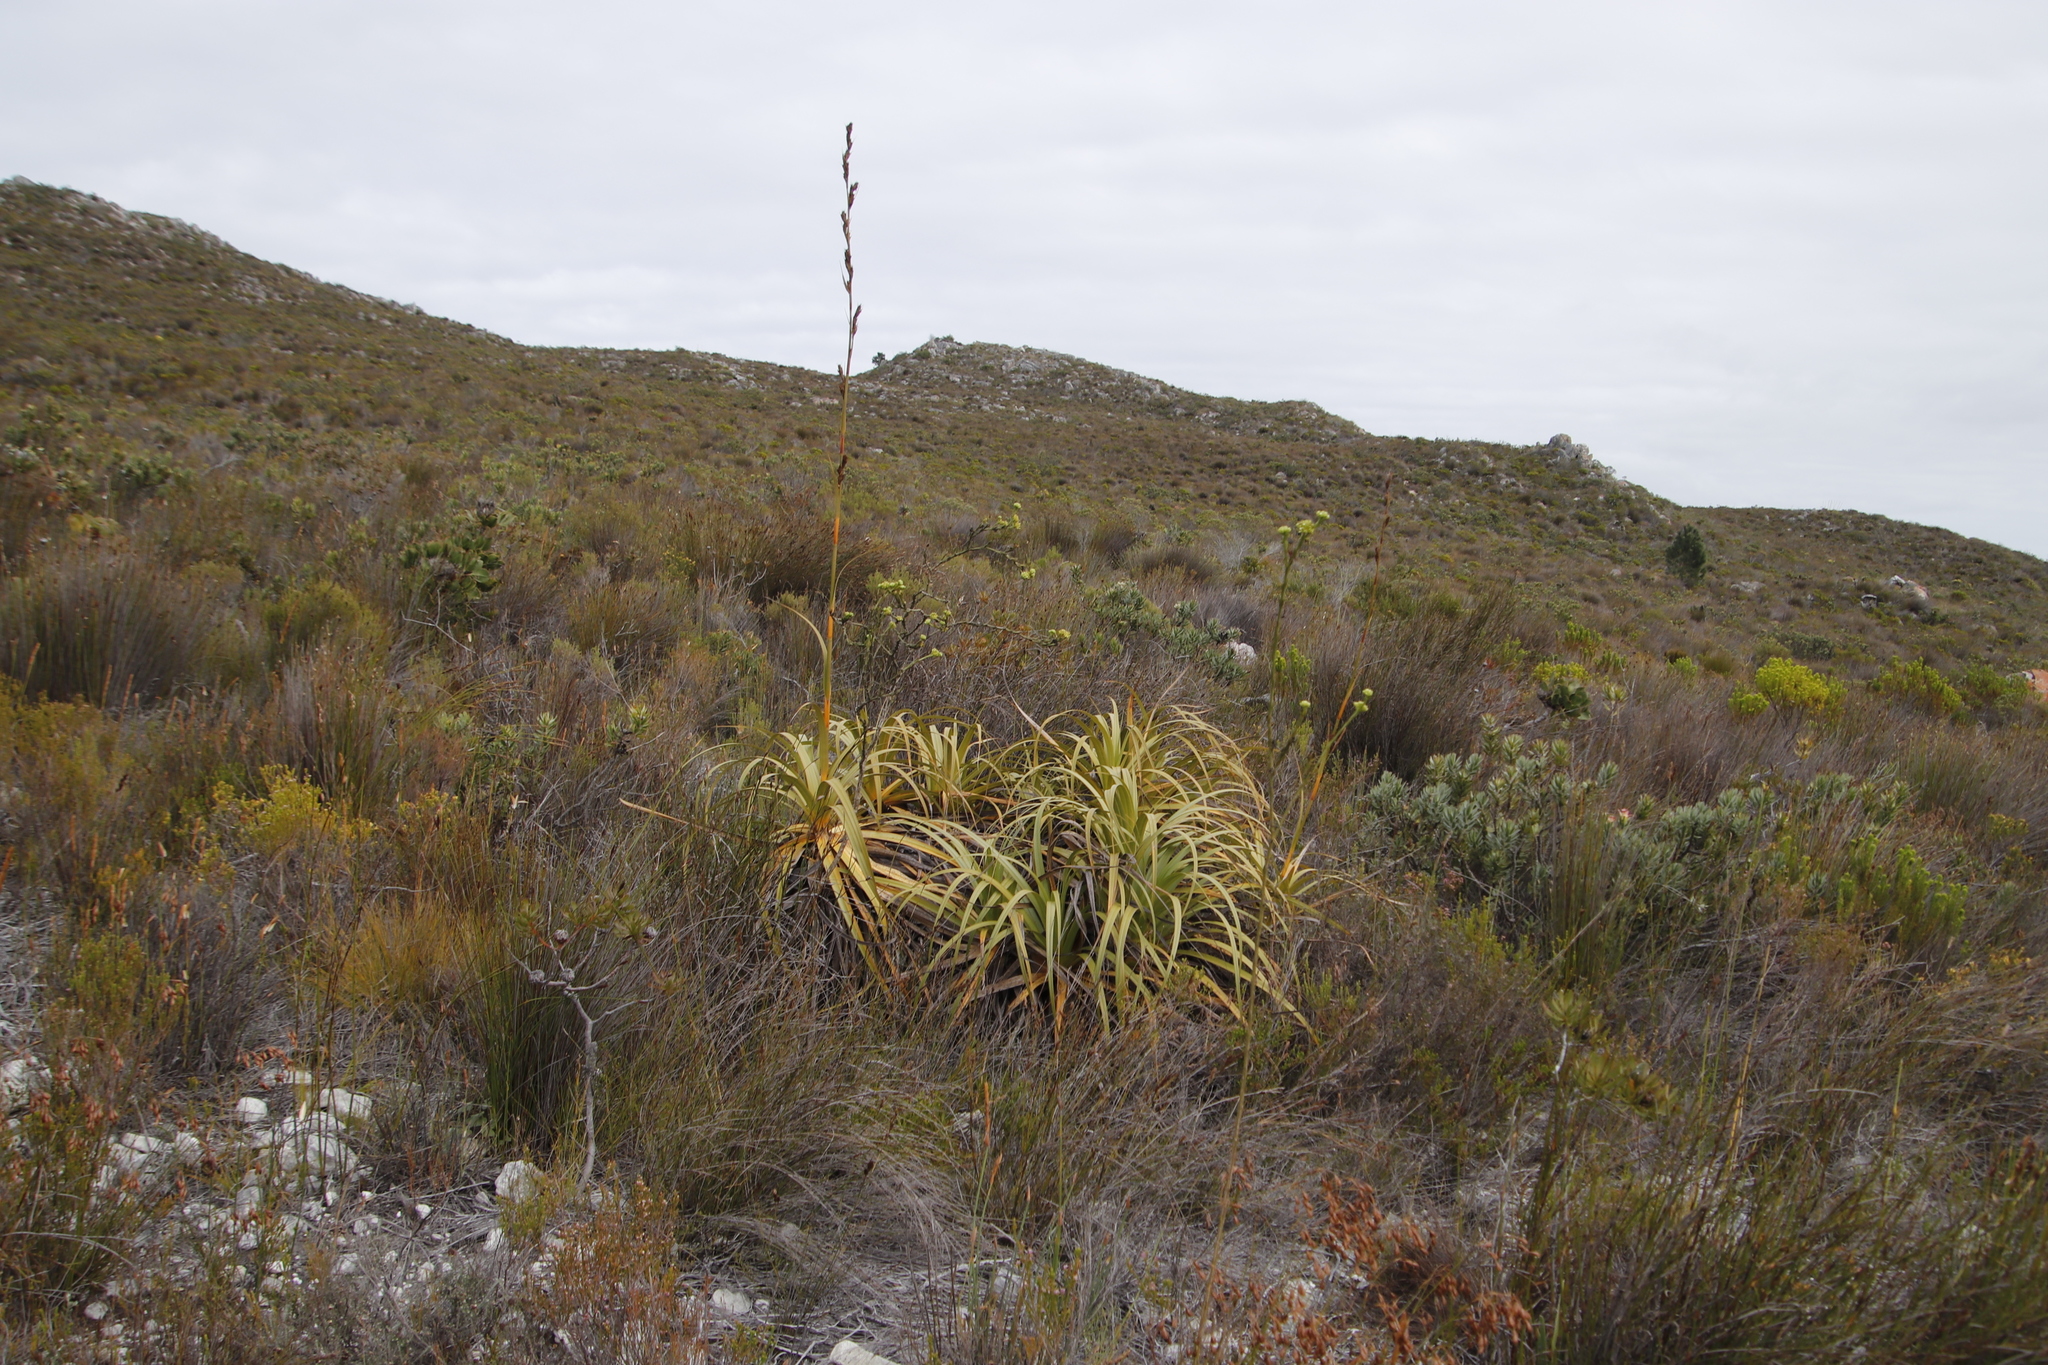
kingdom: Plantae
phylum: Tracheophyta
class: Liliopsida
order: Poales
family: Cyperaceae
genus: Tetraria
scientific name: Tetraria thermalis
